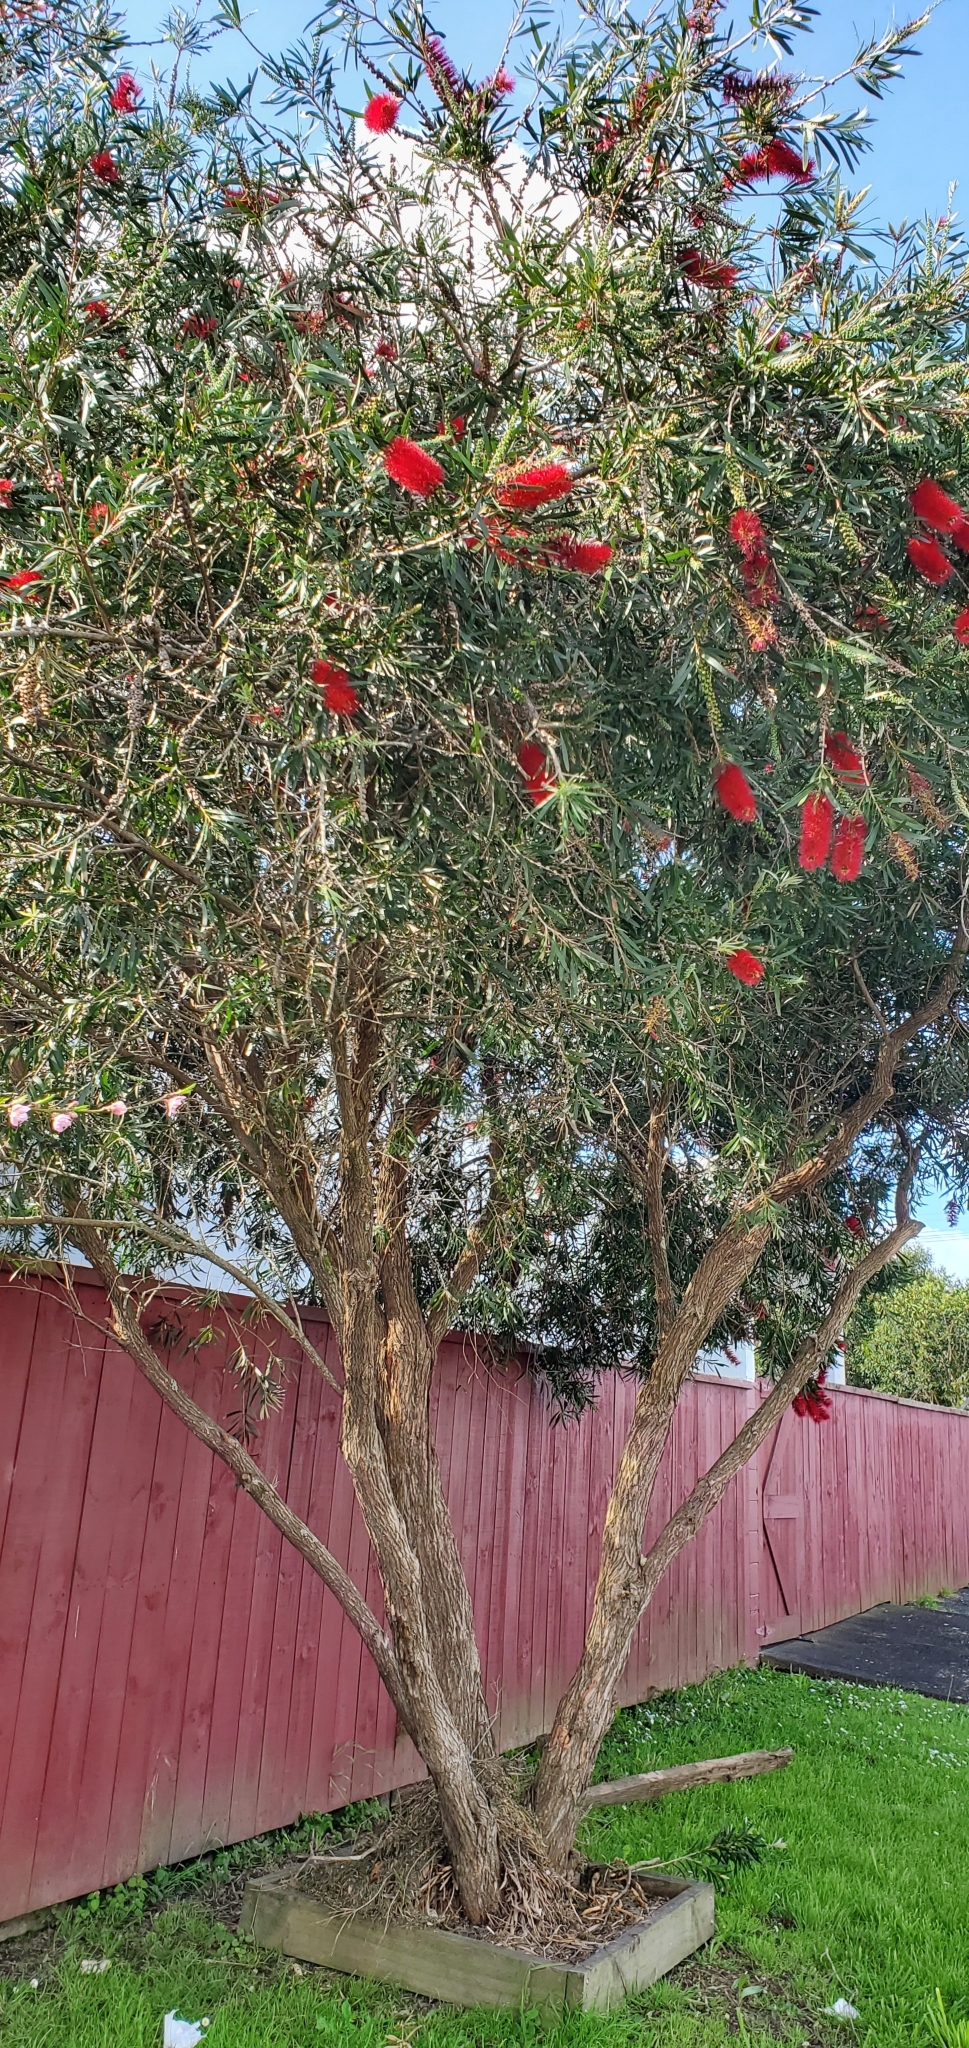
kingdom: Plantae
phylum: Tracheophyta
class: Magnoliopsida
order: Myrtales
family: Myrtaceae
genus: Callistemon
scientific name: Callistemon viminalis
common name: Drooping bottlebrush
